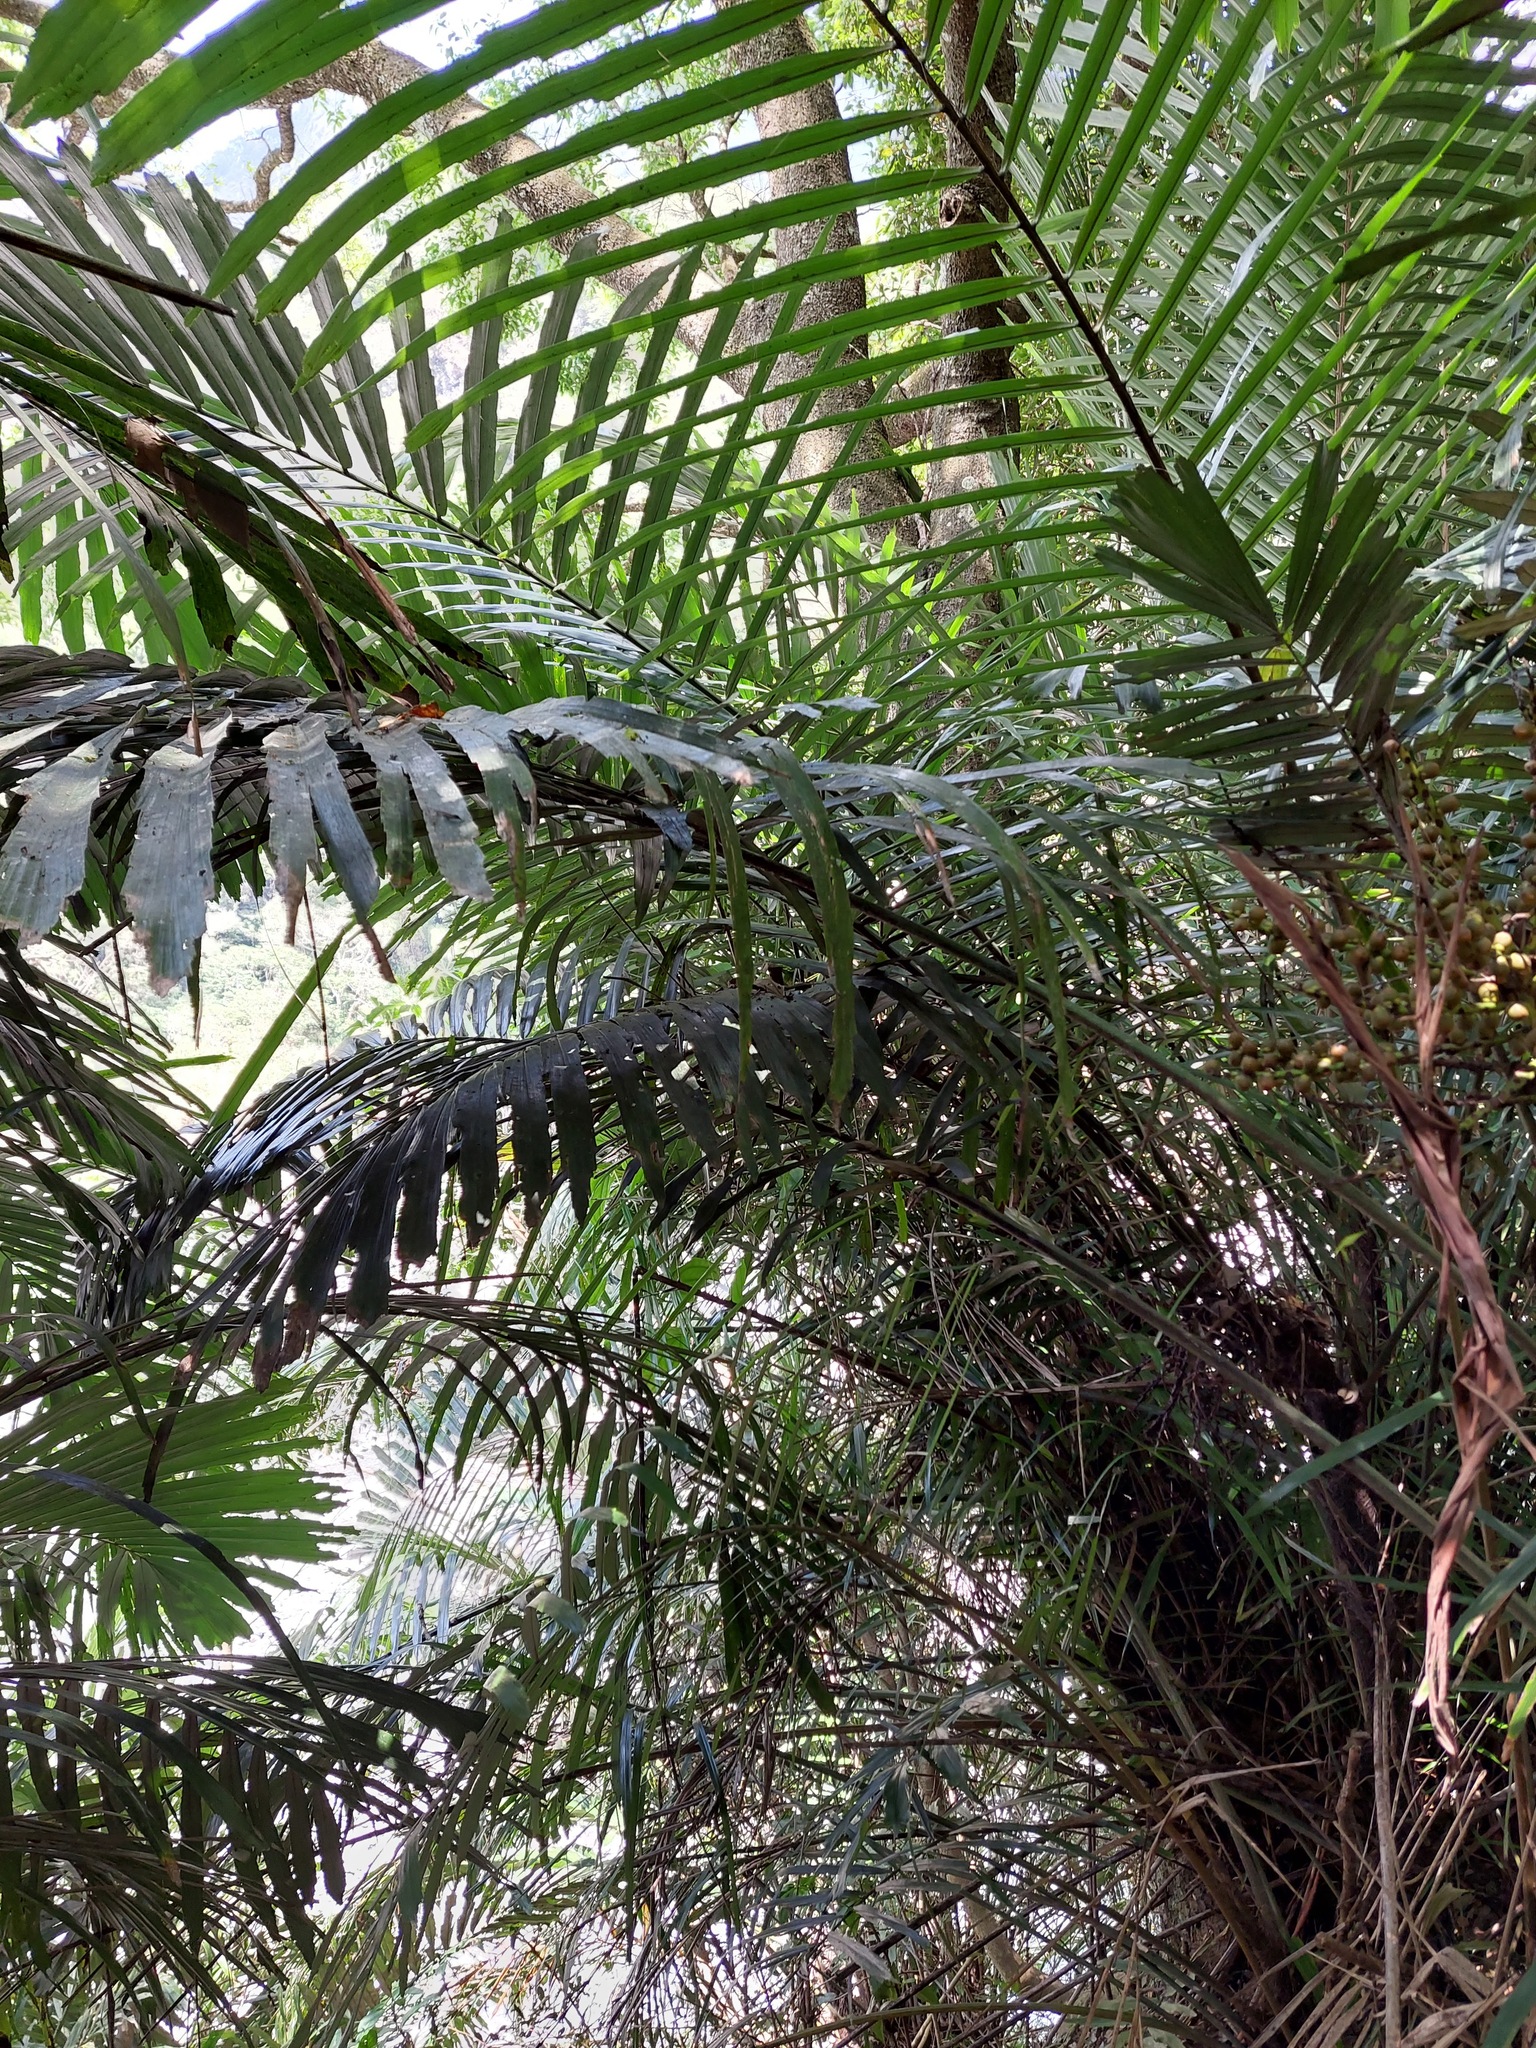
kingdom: Plantae
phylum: Tracheophyta
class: Liliopsida
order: Arecales
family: Arecaceae
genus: Arenga
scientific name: Arenga engleri
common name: Formosan sugar palm
